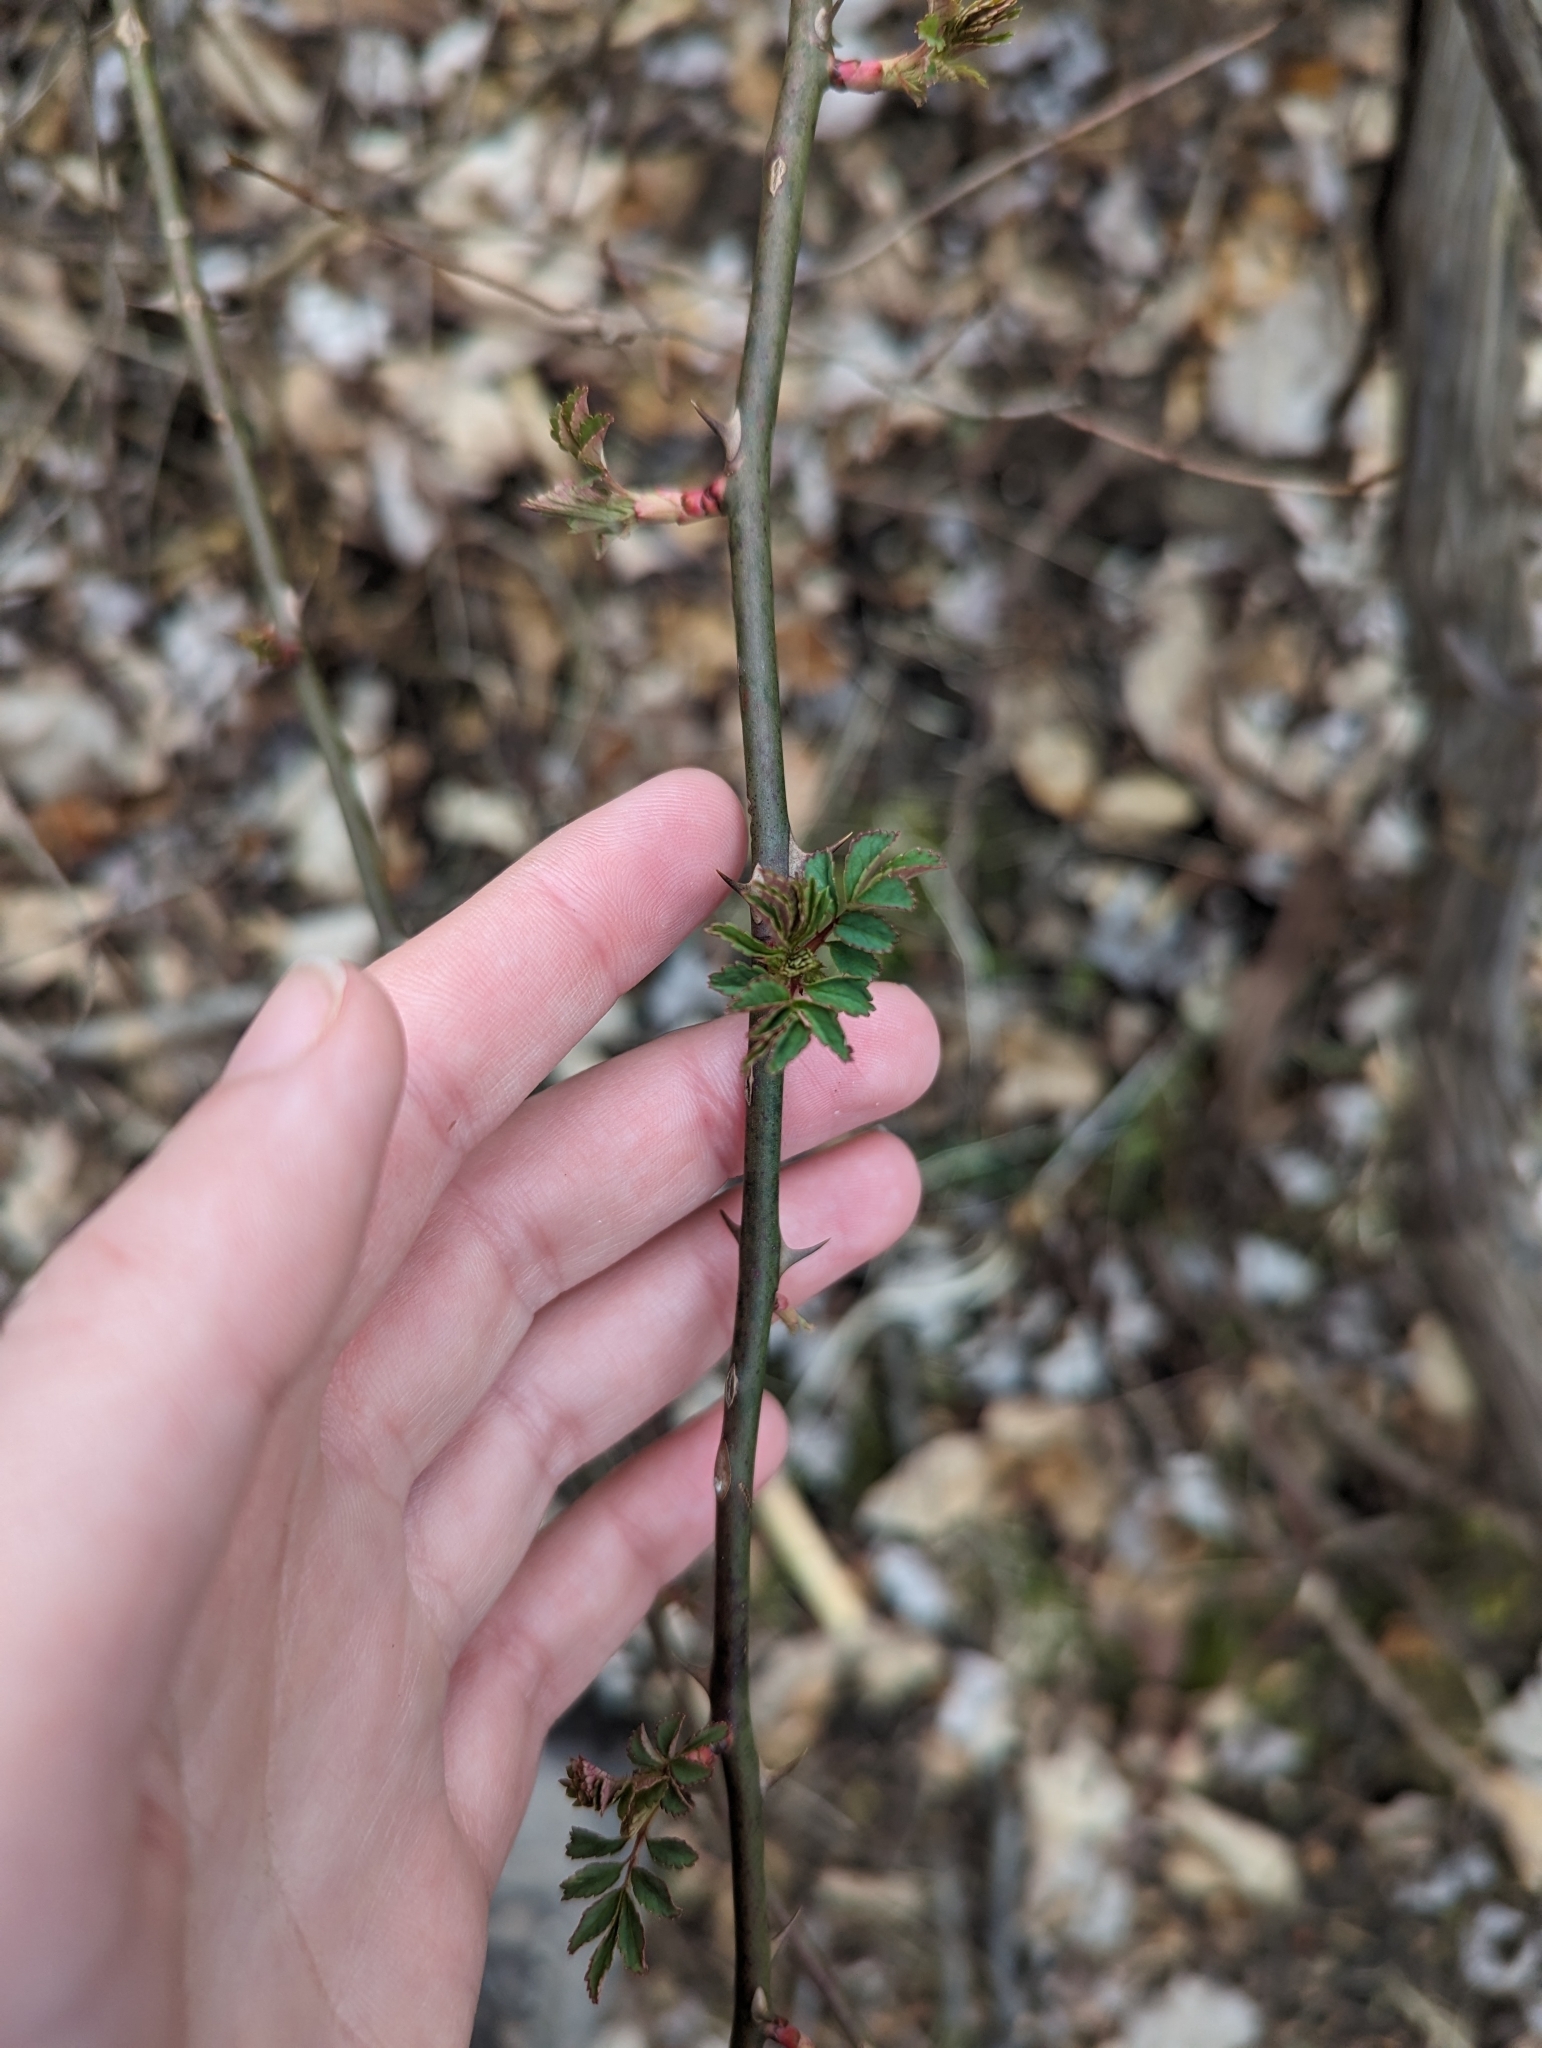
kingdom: Plantae
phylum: Tracheophyta
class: Magnoliopsida
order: Rosales
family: Rosaceae
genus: Rosa
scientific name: Rosa multiflora
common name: Multiflora rose
